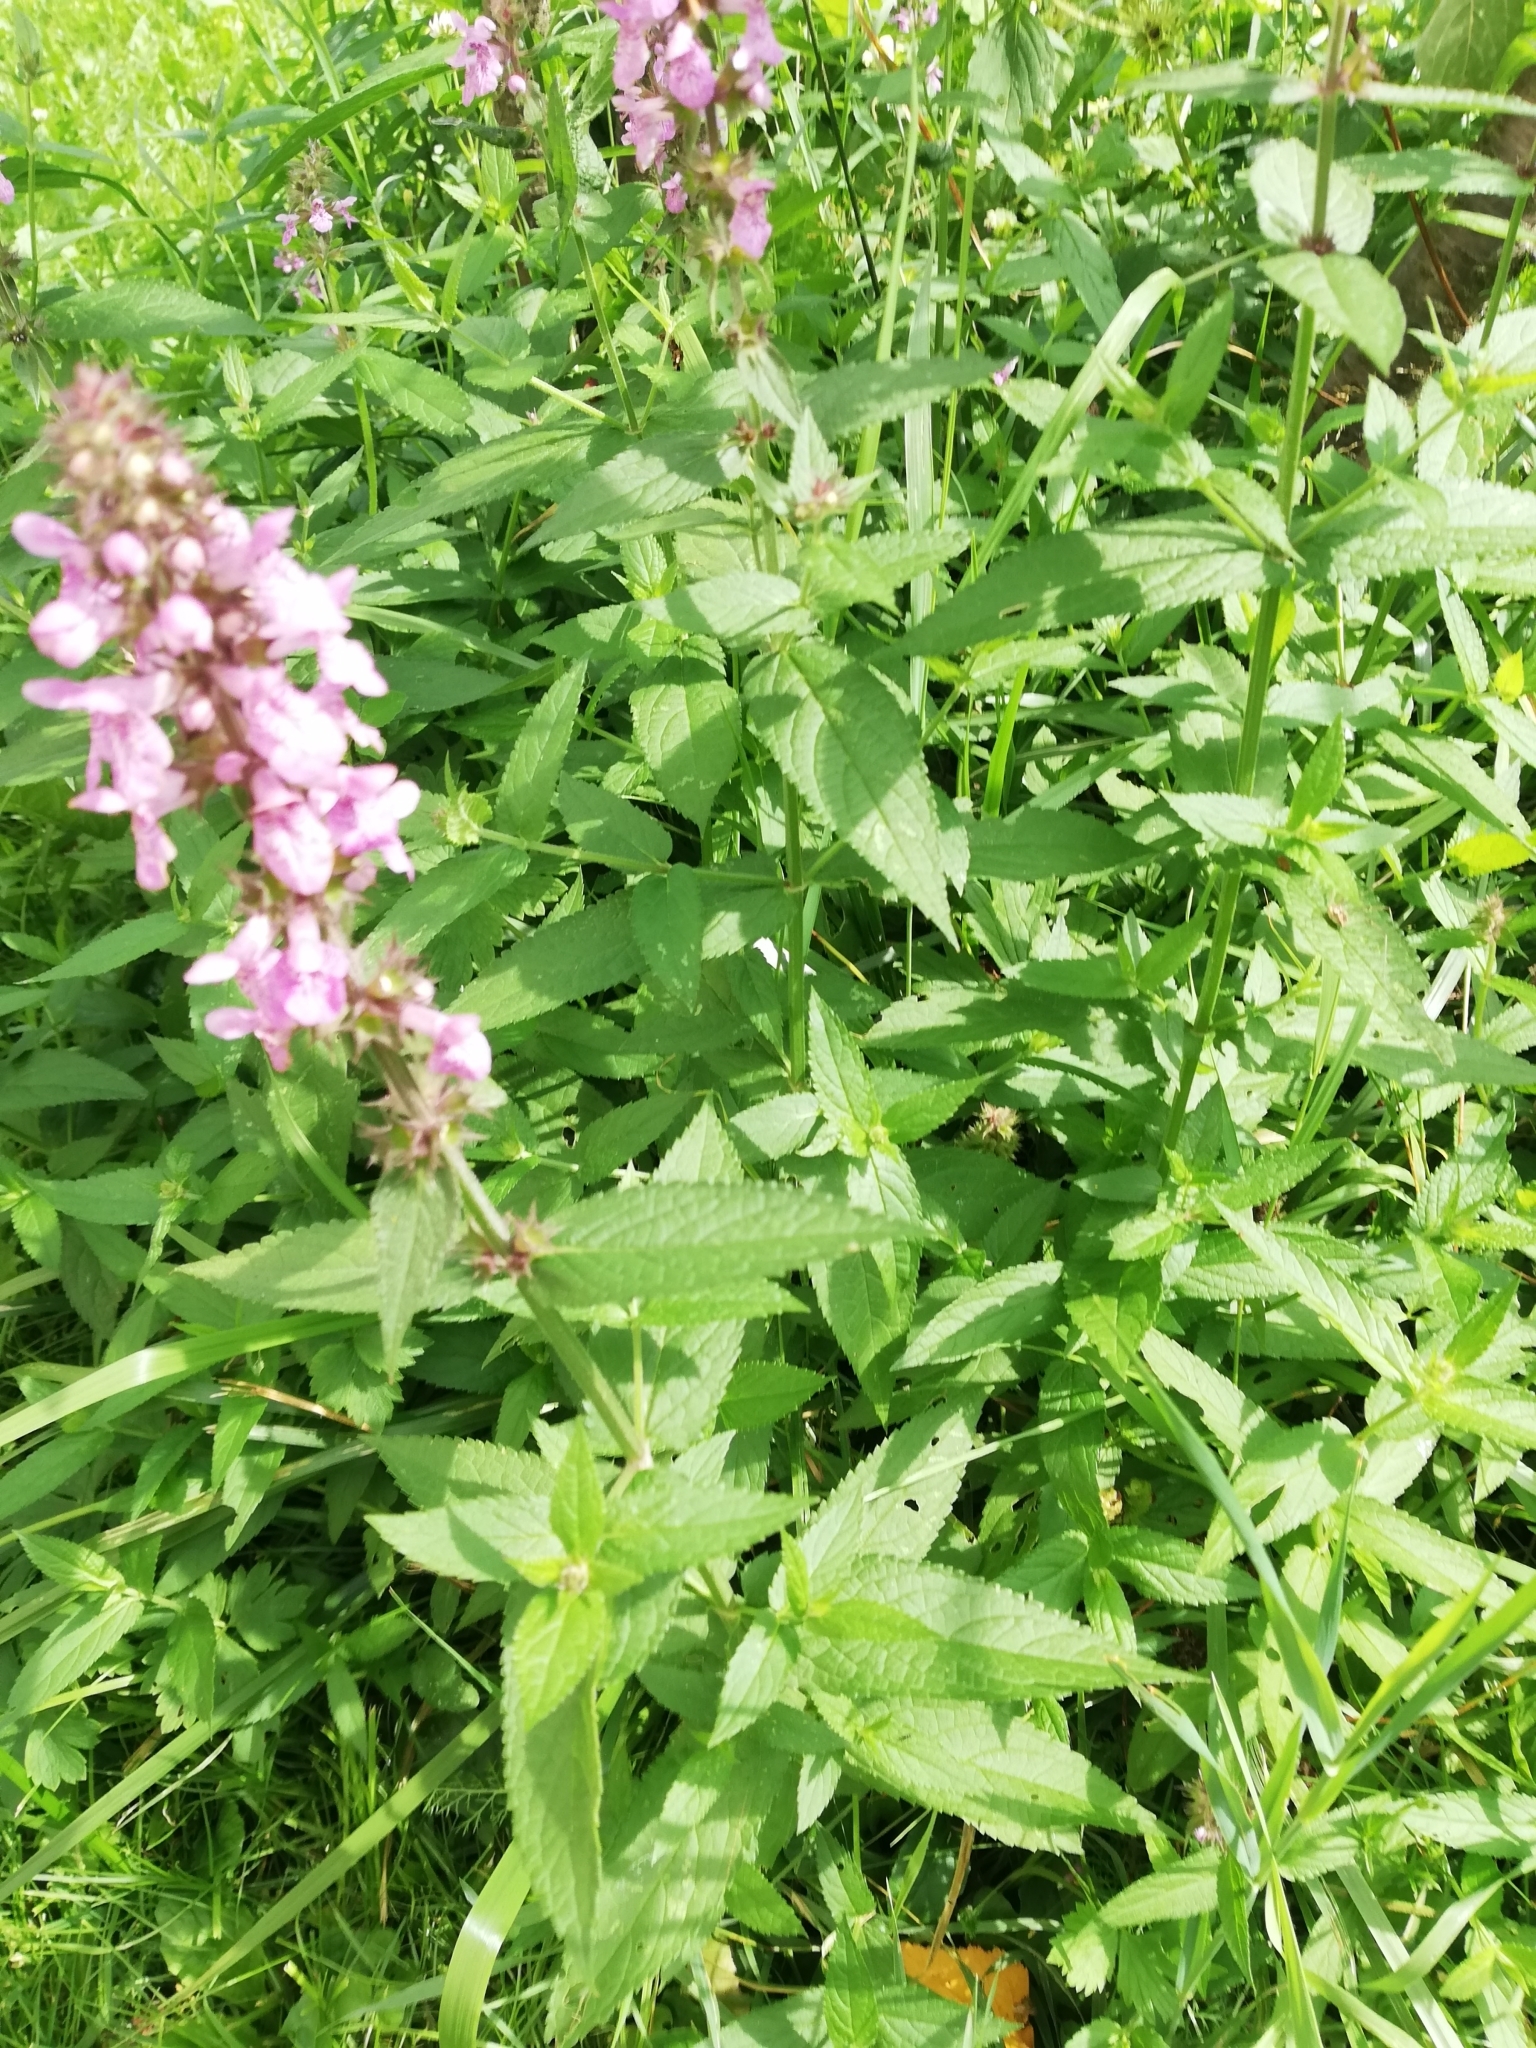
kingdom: Plantae
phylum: Tracheophyta
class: Magnoliopsida
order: Lamiales
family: Lamiaceae
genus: Stachys
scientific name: Stachys palustris
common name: Marsh woundwort
